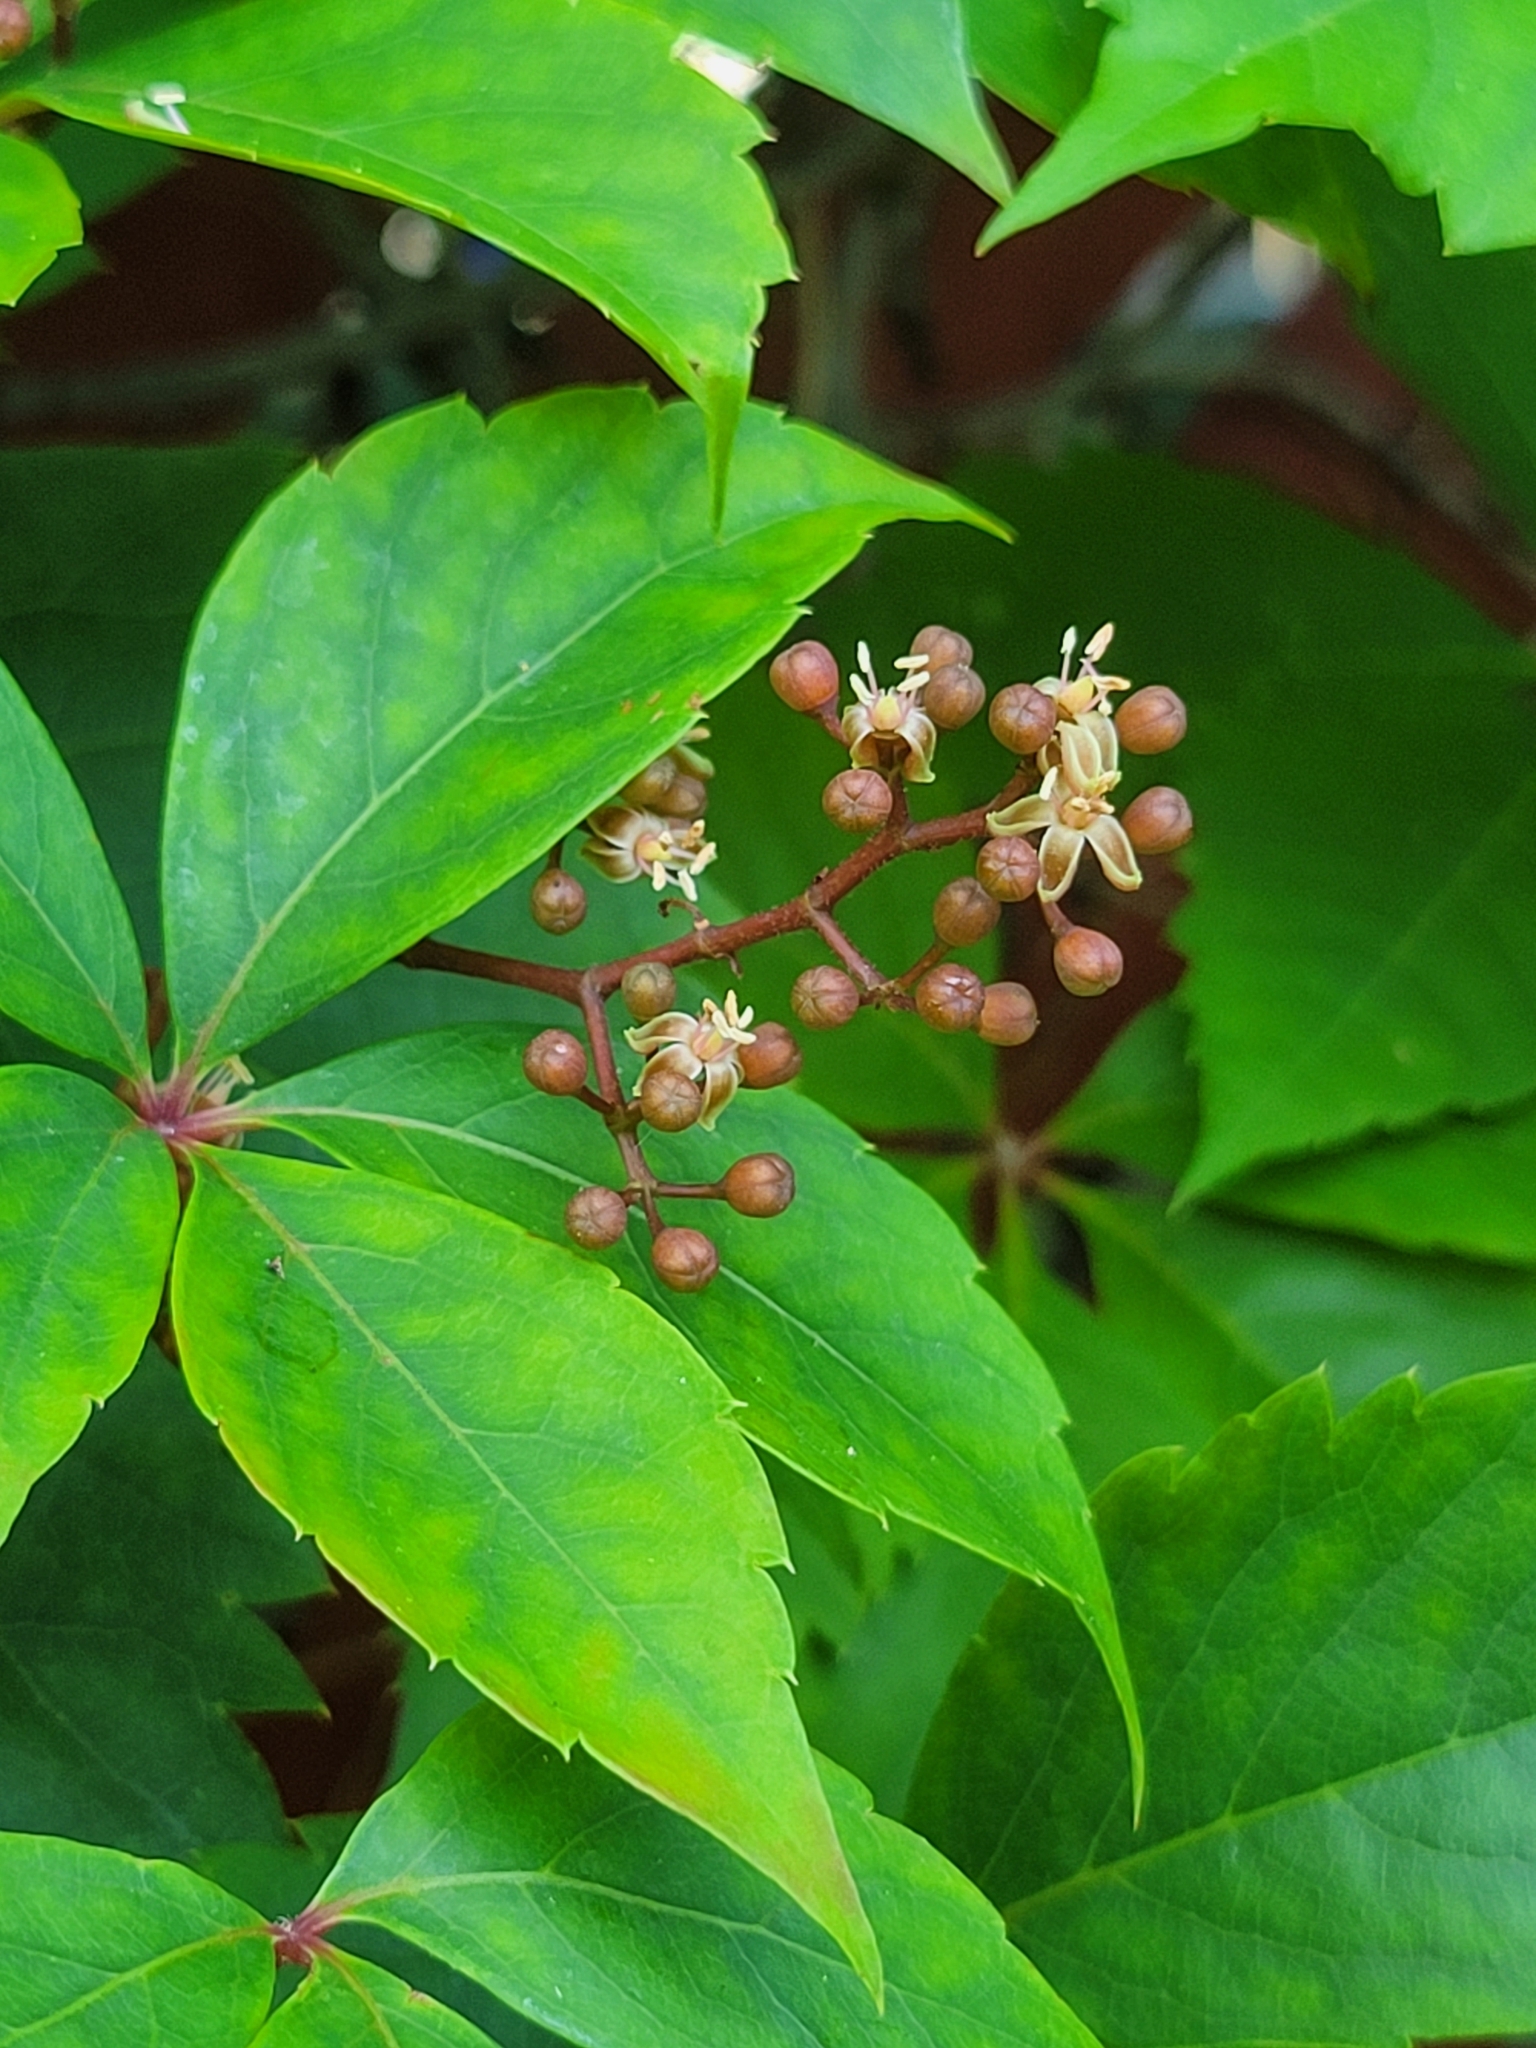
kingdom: Plantae
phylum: Tracheophyta
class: Magnoliopsida
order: Vitales
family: Vitaceae
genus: Parthenocissus
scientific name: Parthenocissus quinquefolia
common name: Virginia-creeper
